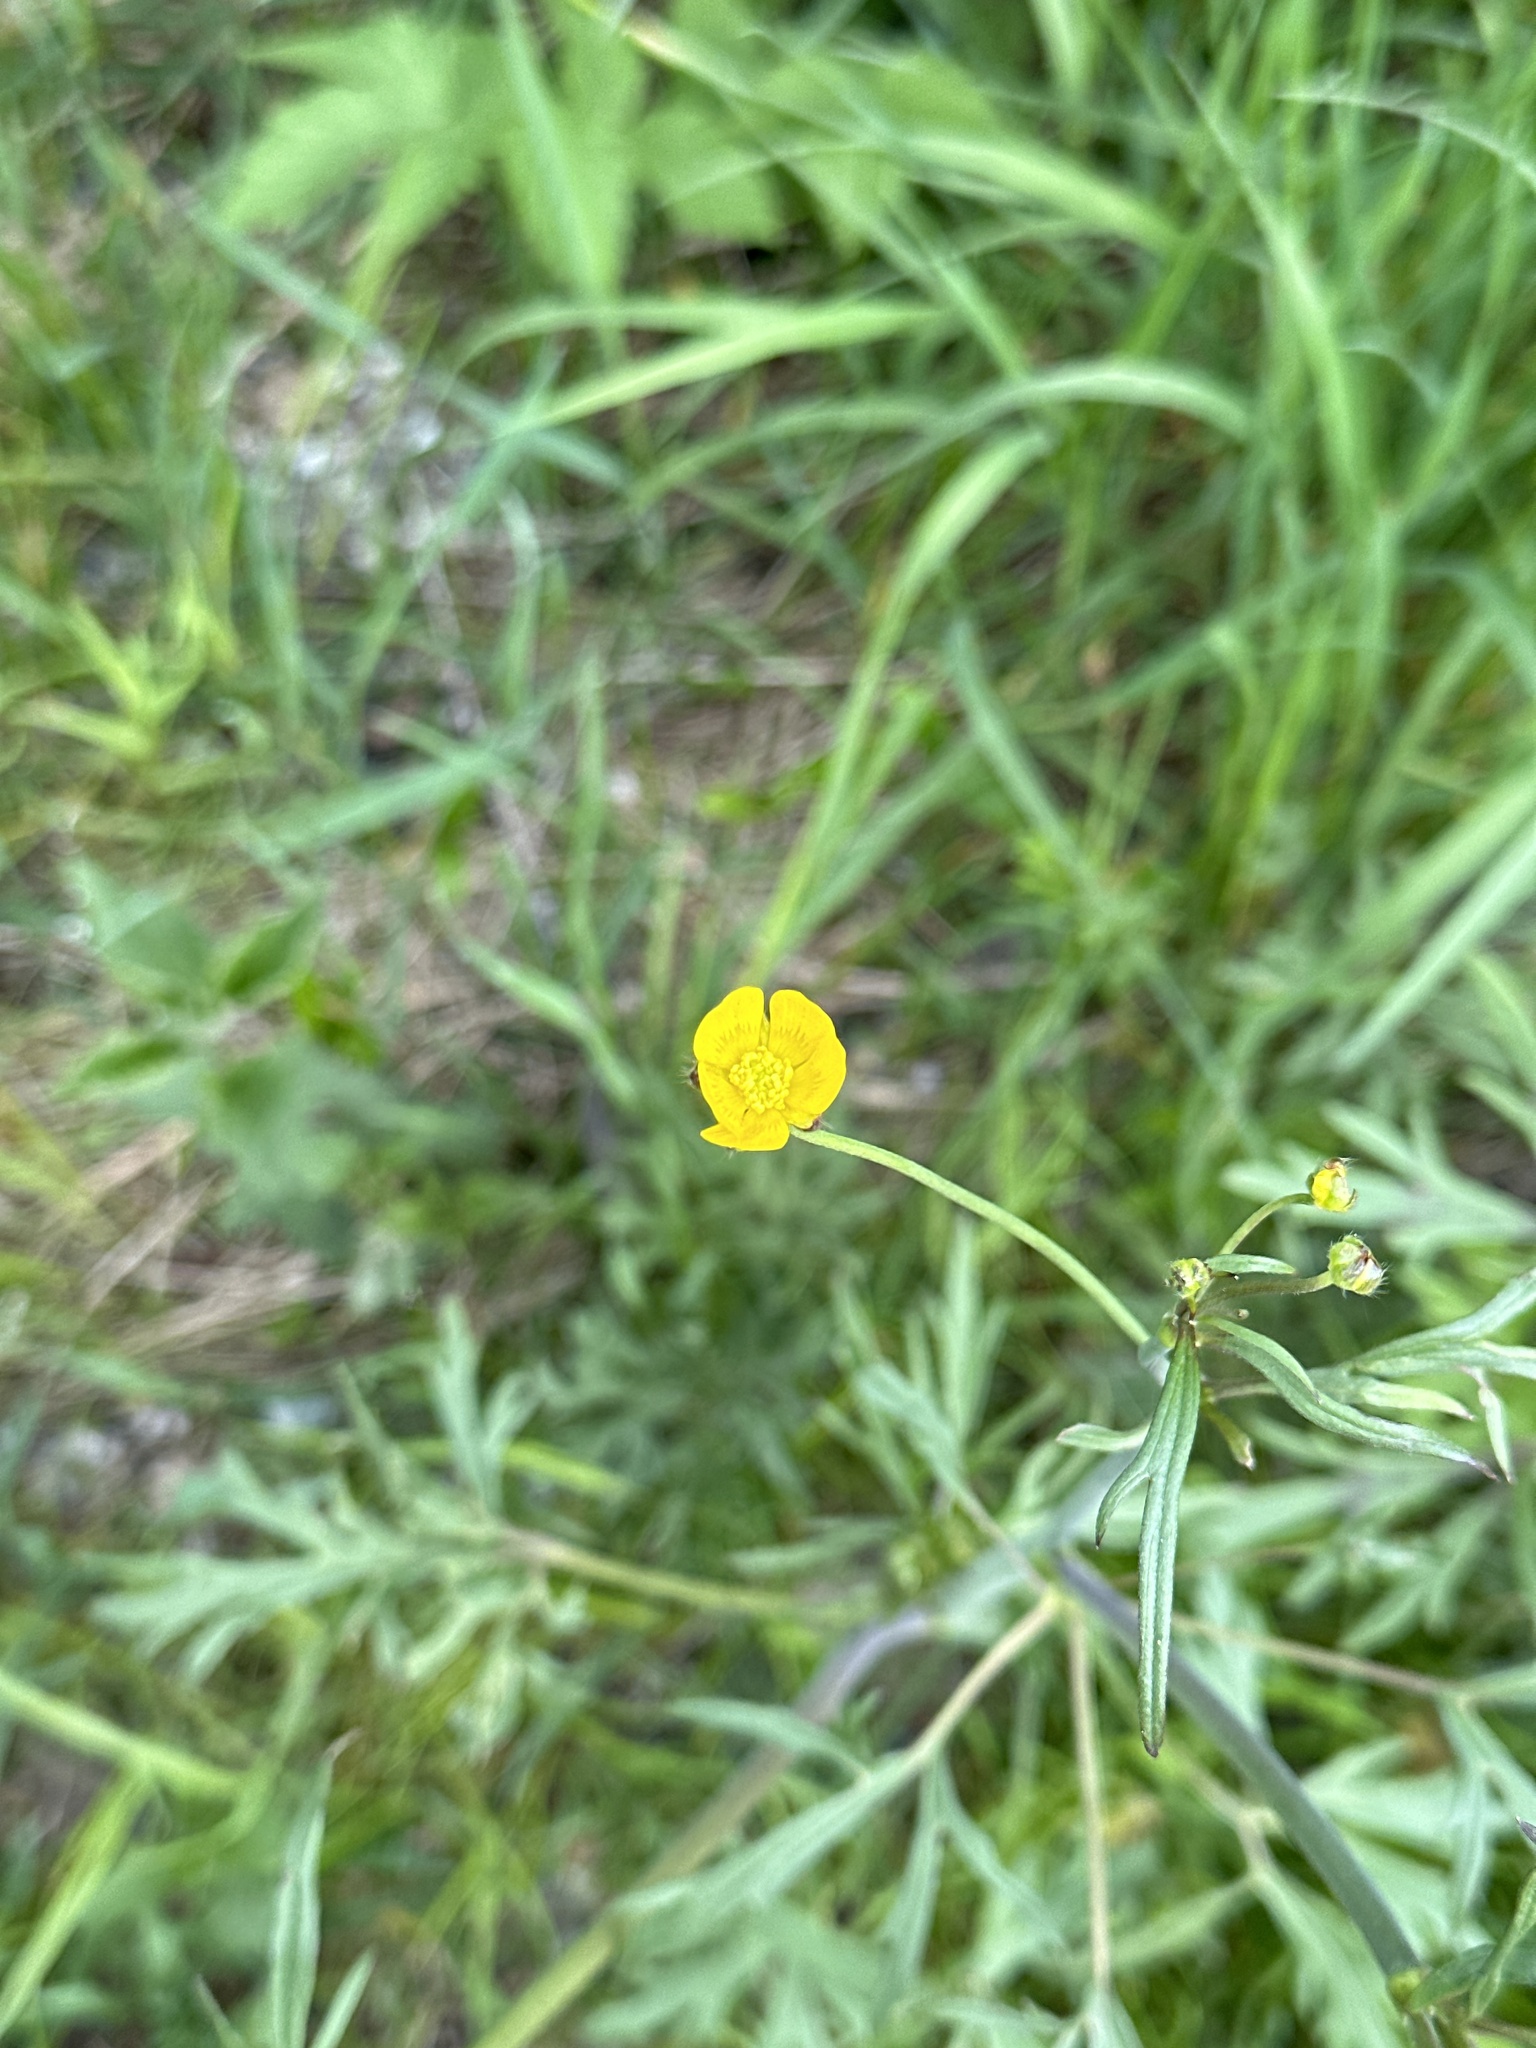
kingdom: Plantae
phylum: Tracheophyta
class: Magnoliopsida
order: Ranunculales
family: Ranunculaceae
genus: Ranunculus
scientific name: Ranunculus acris
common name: Meadow buttercup
